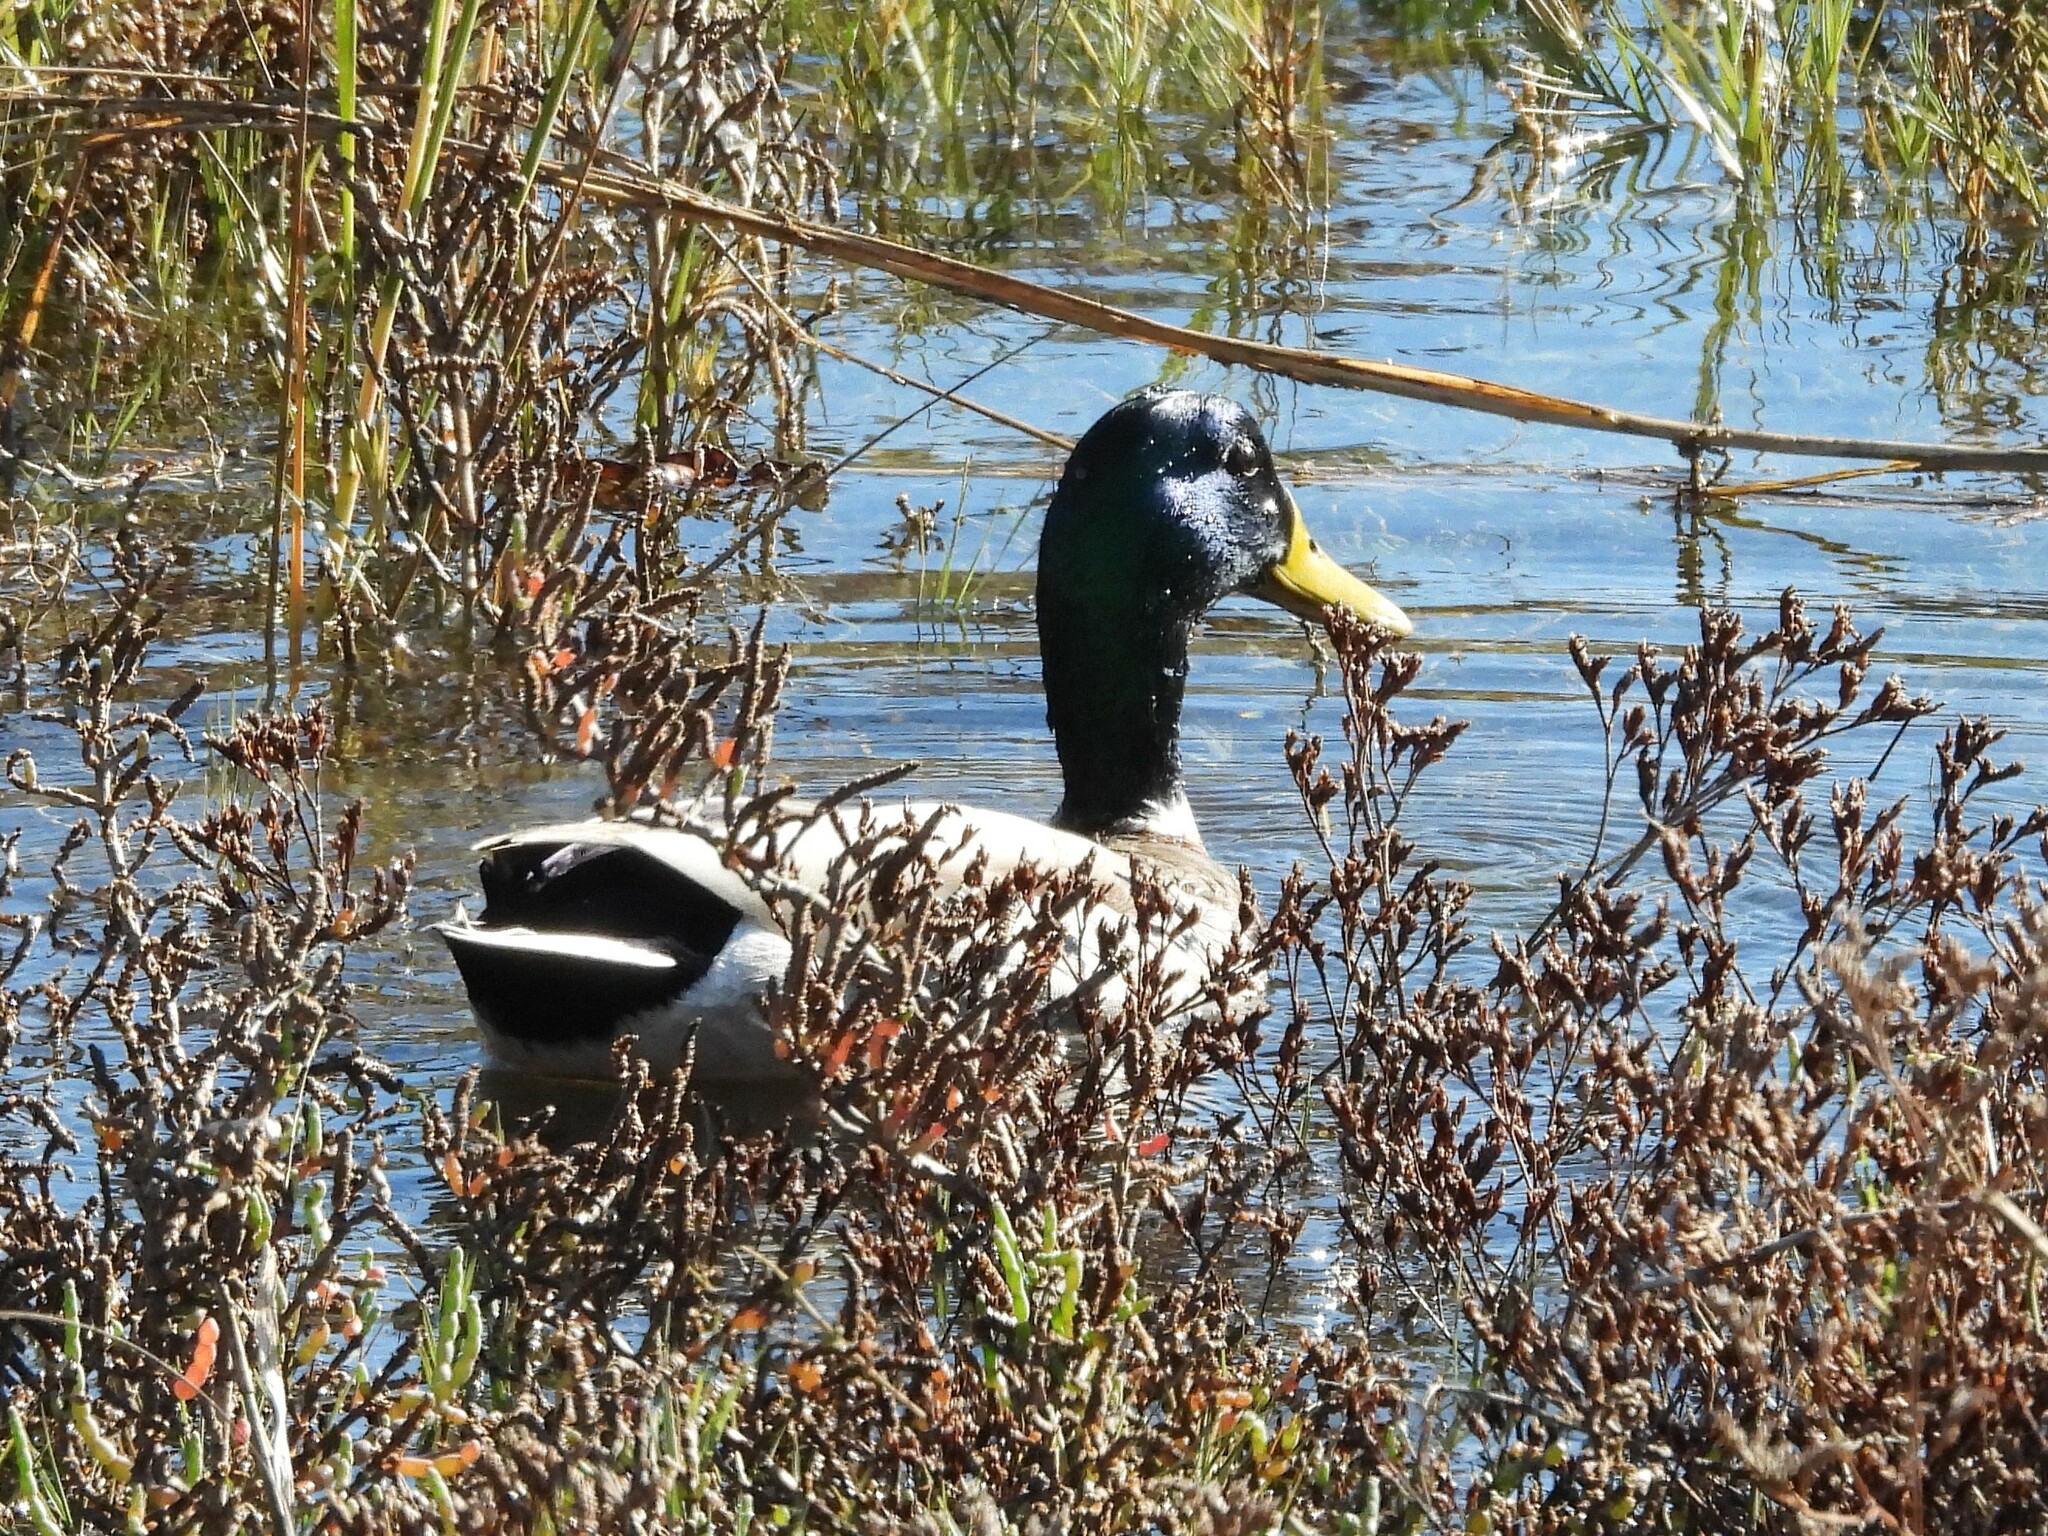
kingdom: Animalia
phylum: Chordata
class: Aves
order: Anseriformes
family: Anatidae
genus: Anas
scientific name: Anas platyrhynchos
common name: Mallard
